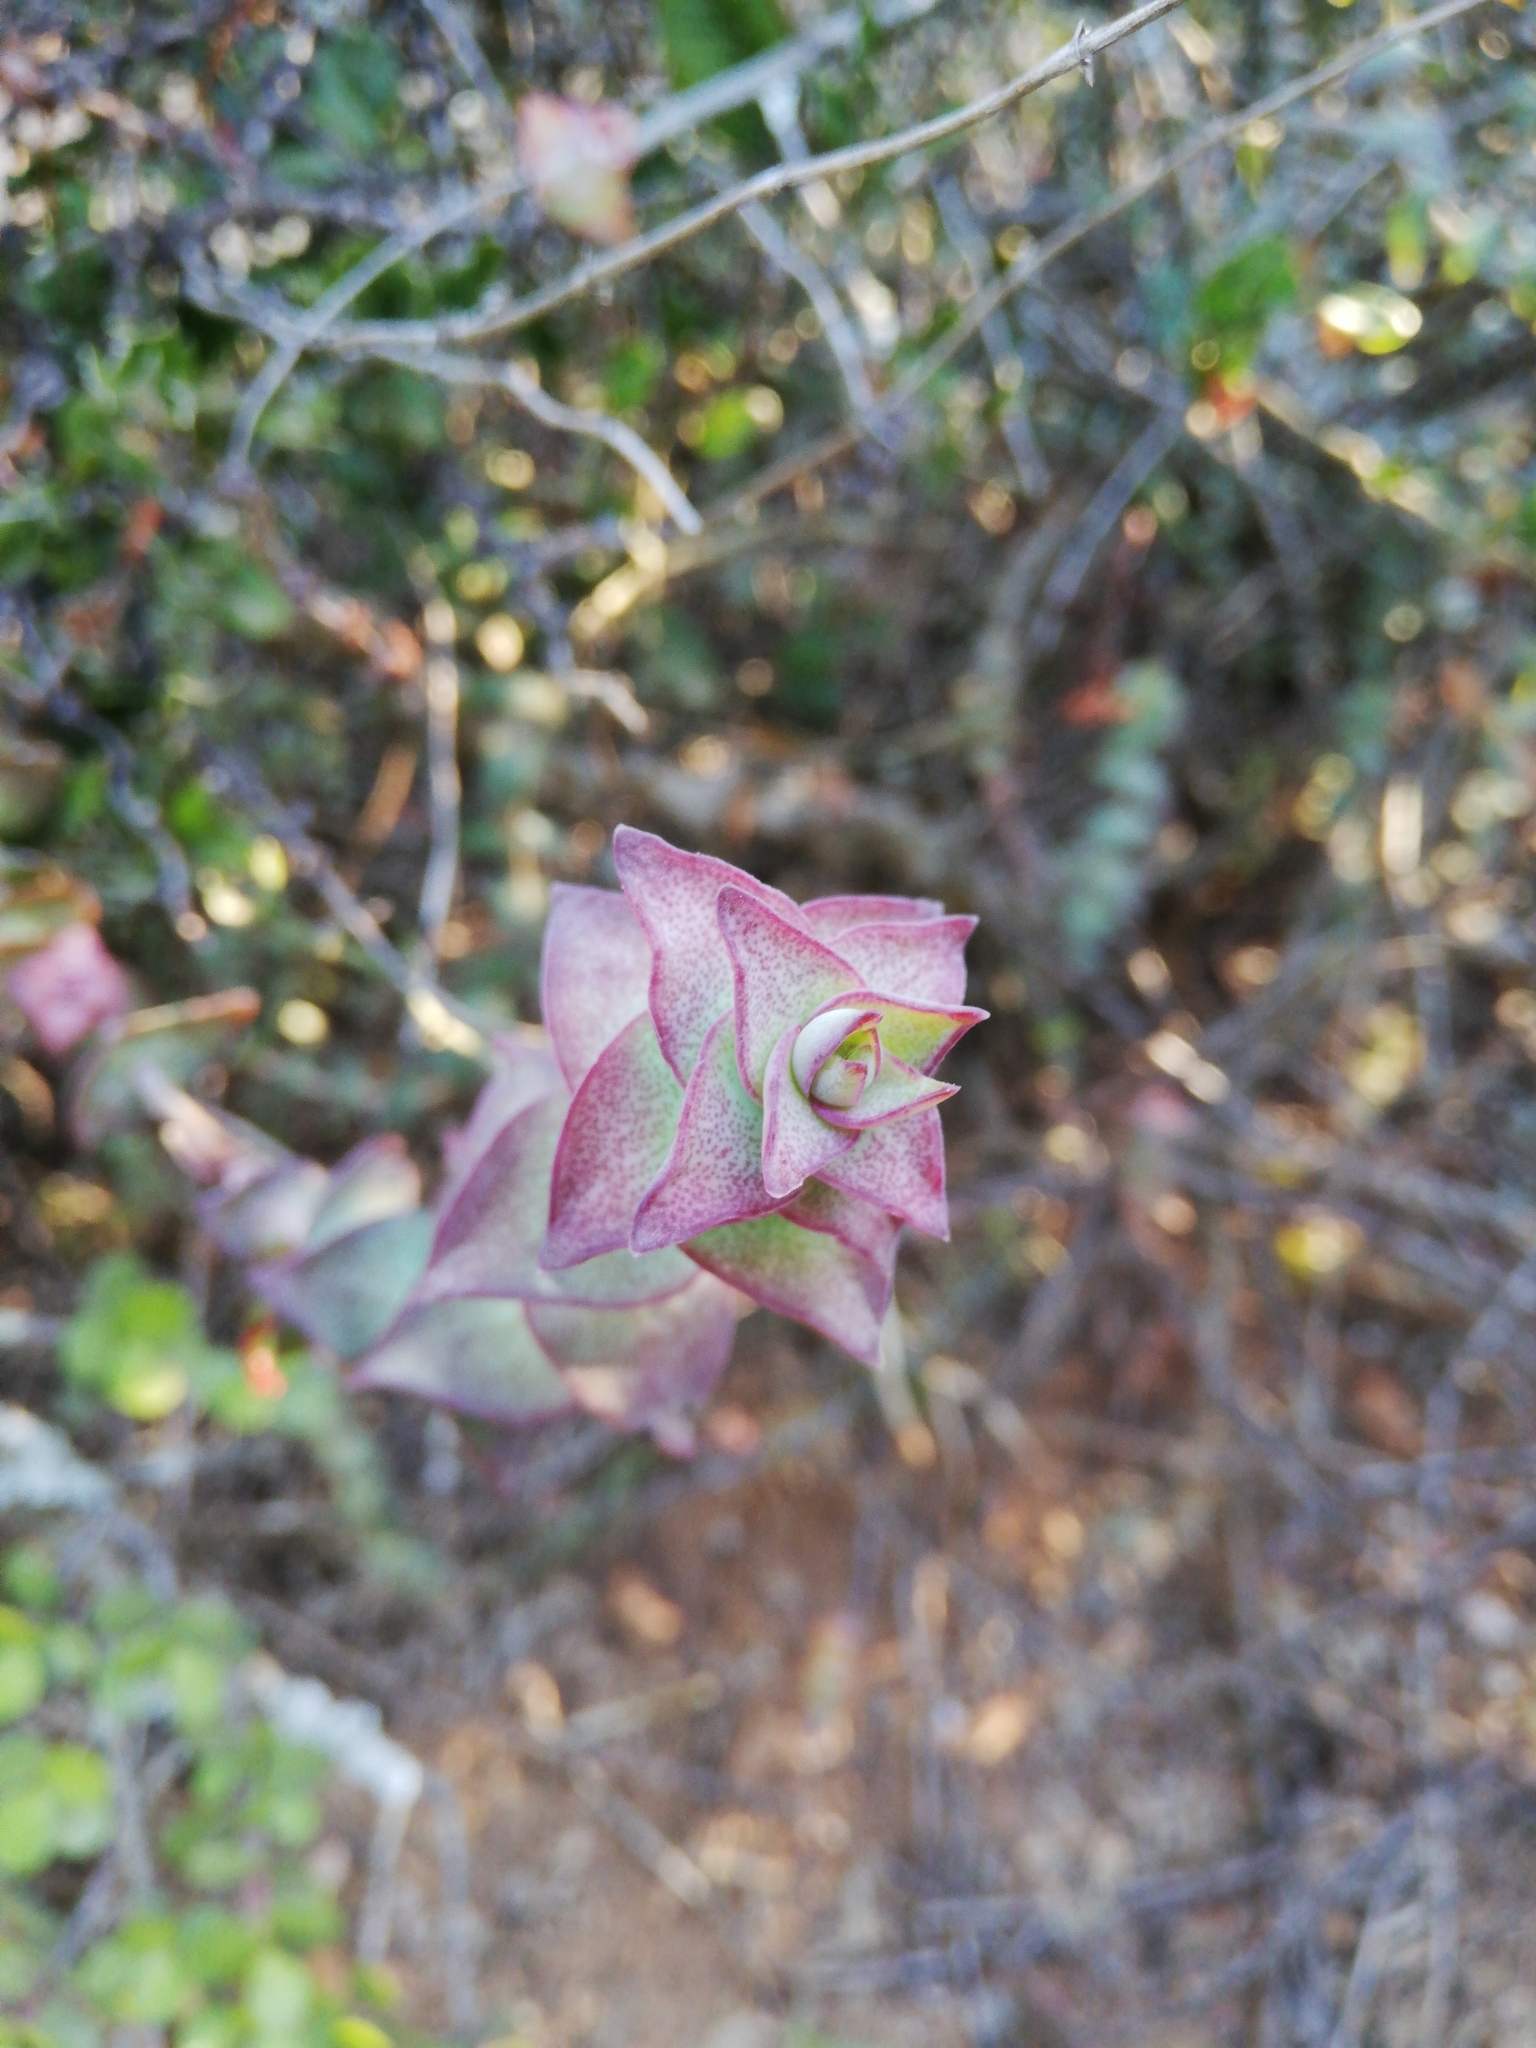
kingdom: Plantae
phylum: Tracheophyta
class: Magnoliopsida
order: Saxifragales
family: Crassulaceae
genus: Crassula
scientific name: Crassula perforata
